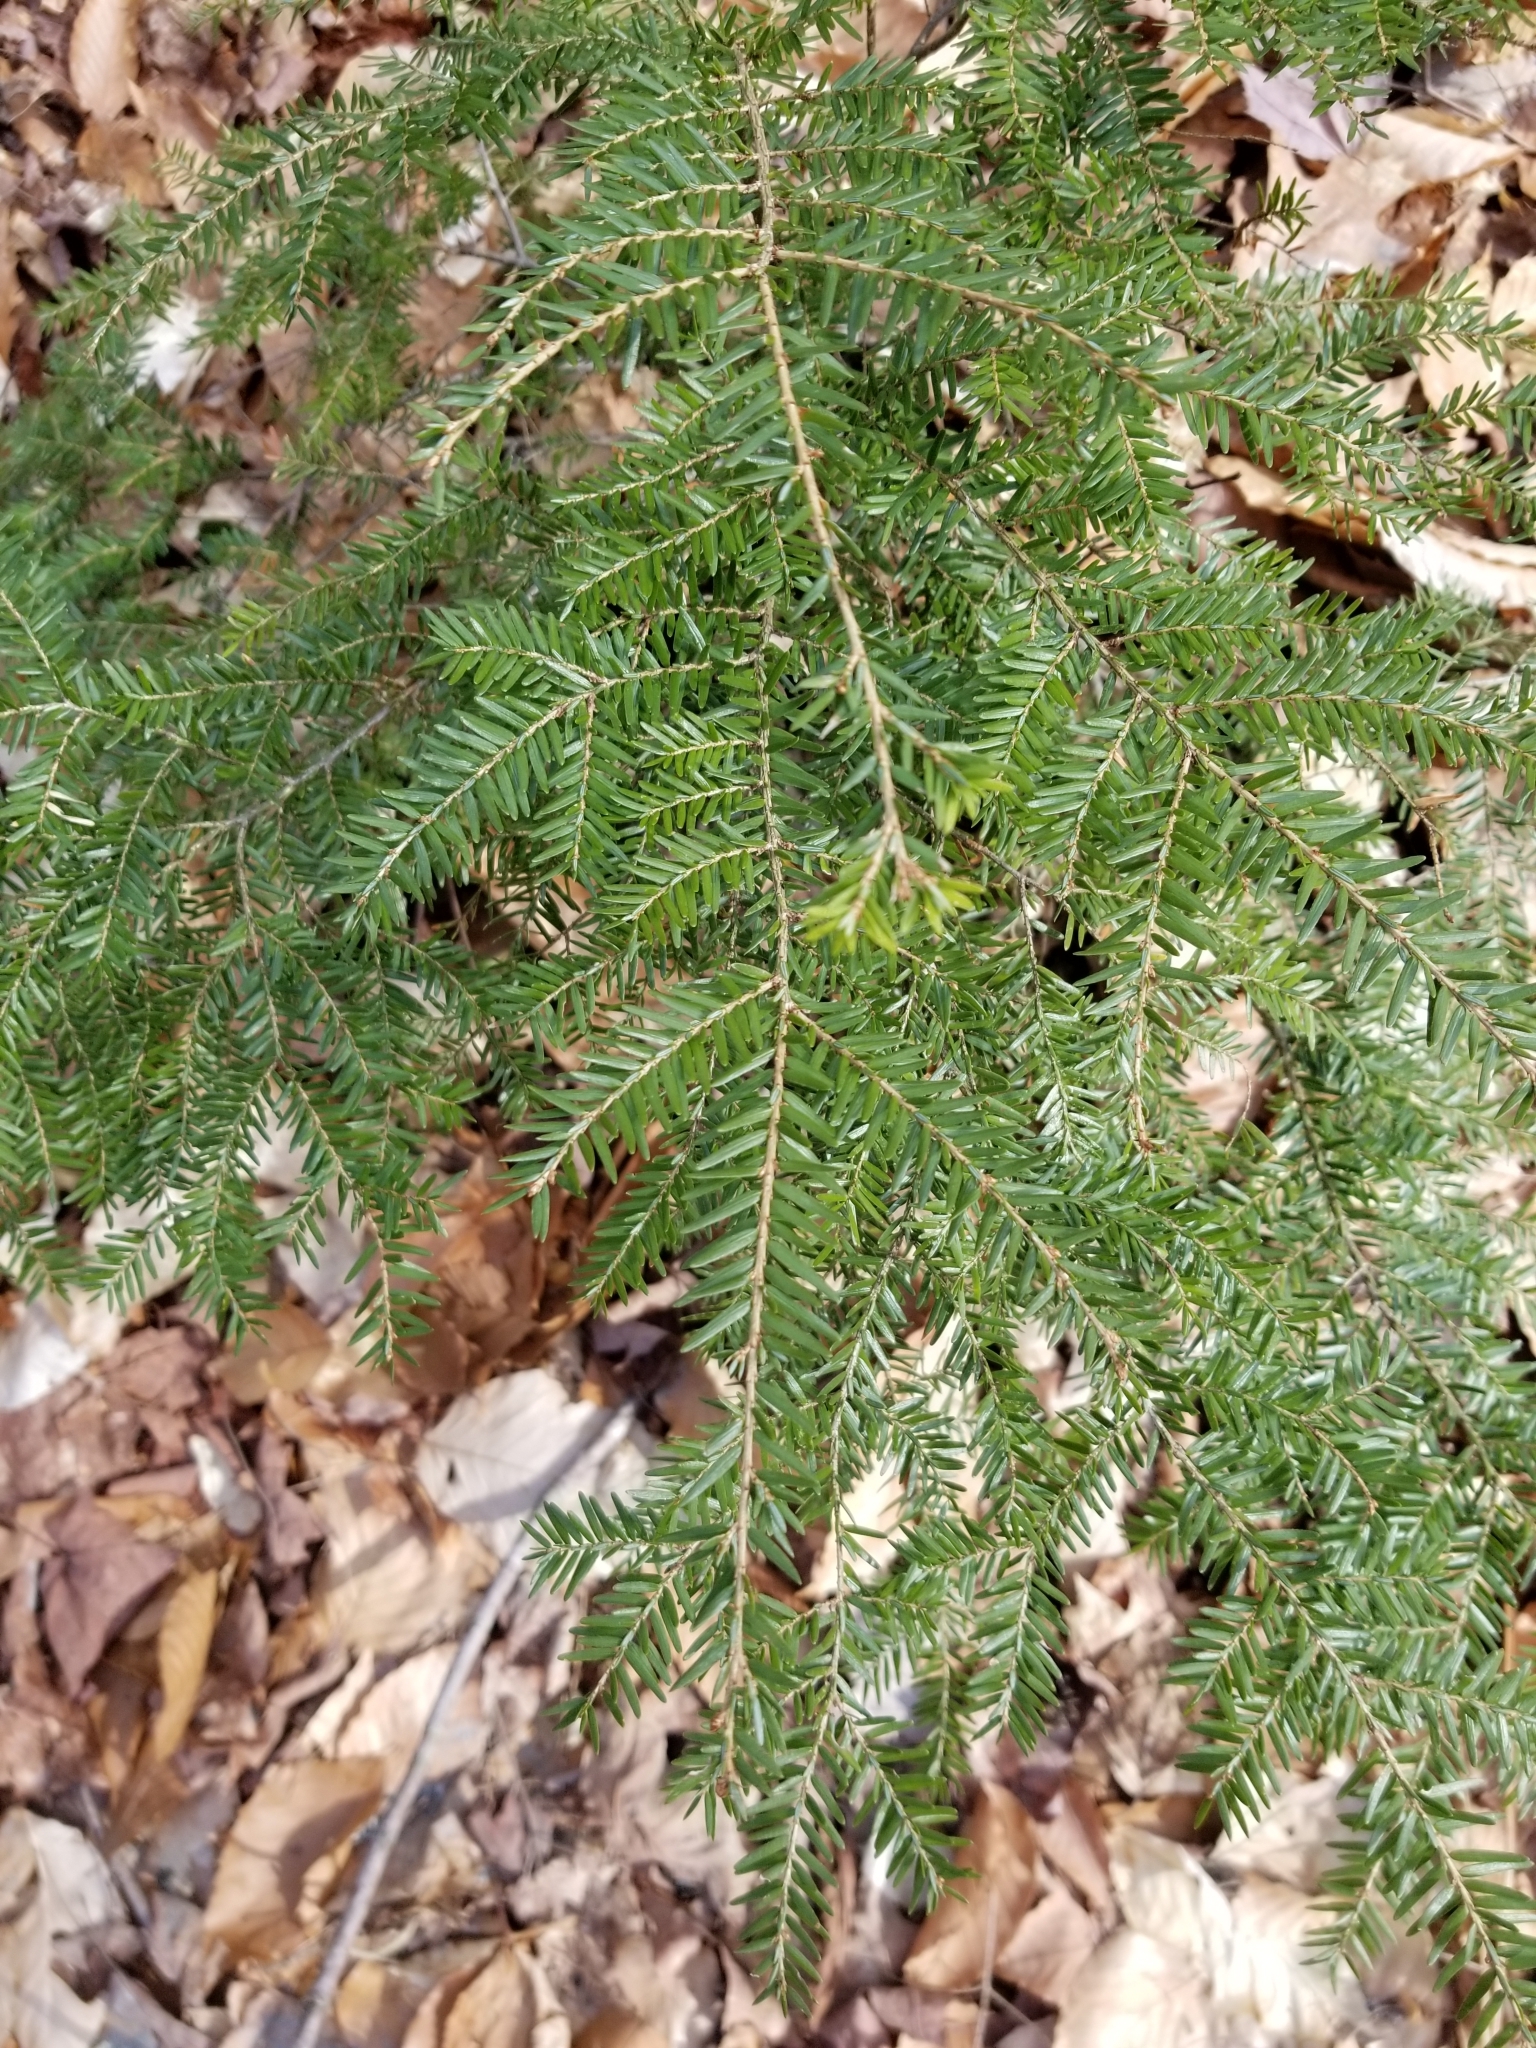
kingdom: Plantae
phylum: Tracheophyta
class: Pinopsida
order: Pinales
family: Pinaceae
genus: Tsuga
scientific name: Tsuga canadensis
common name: Eastern hemlock
